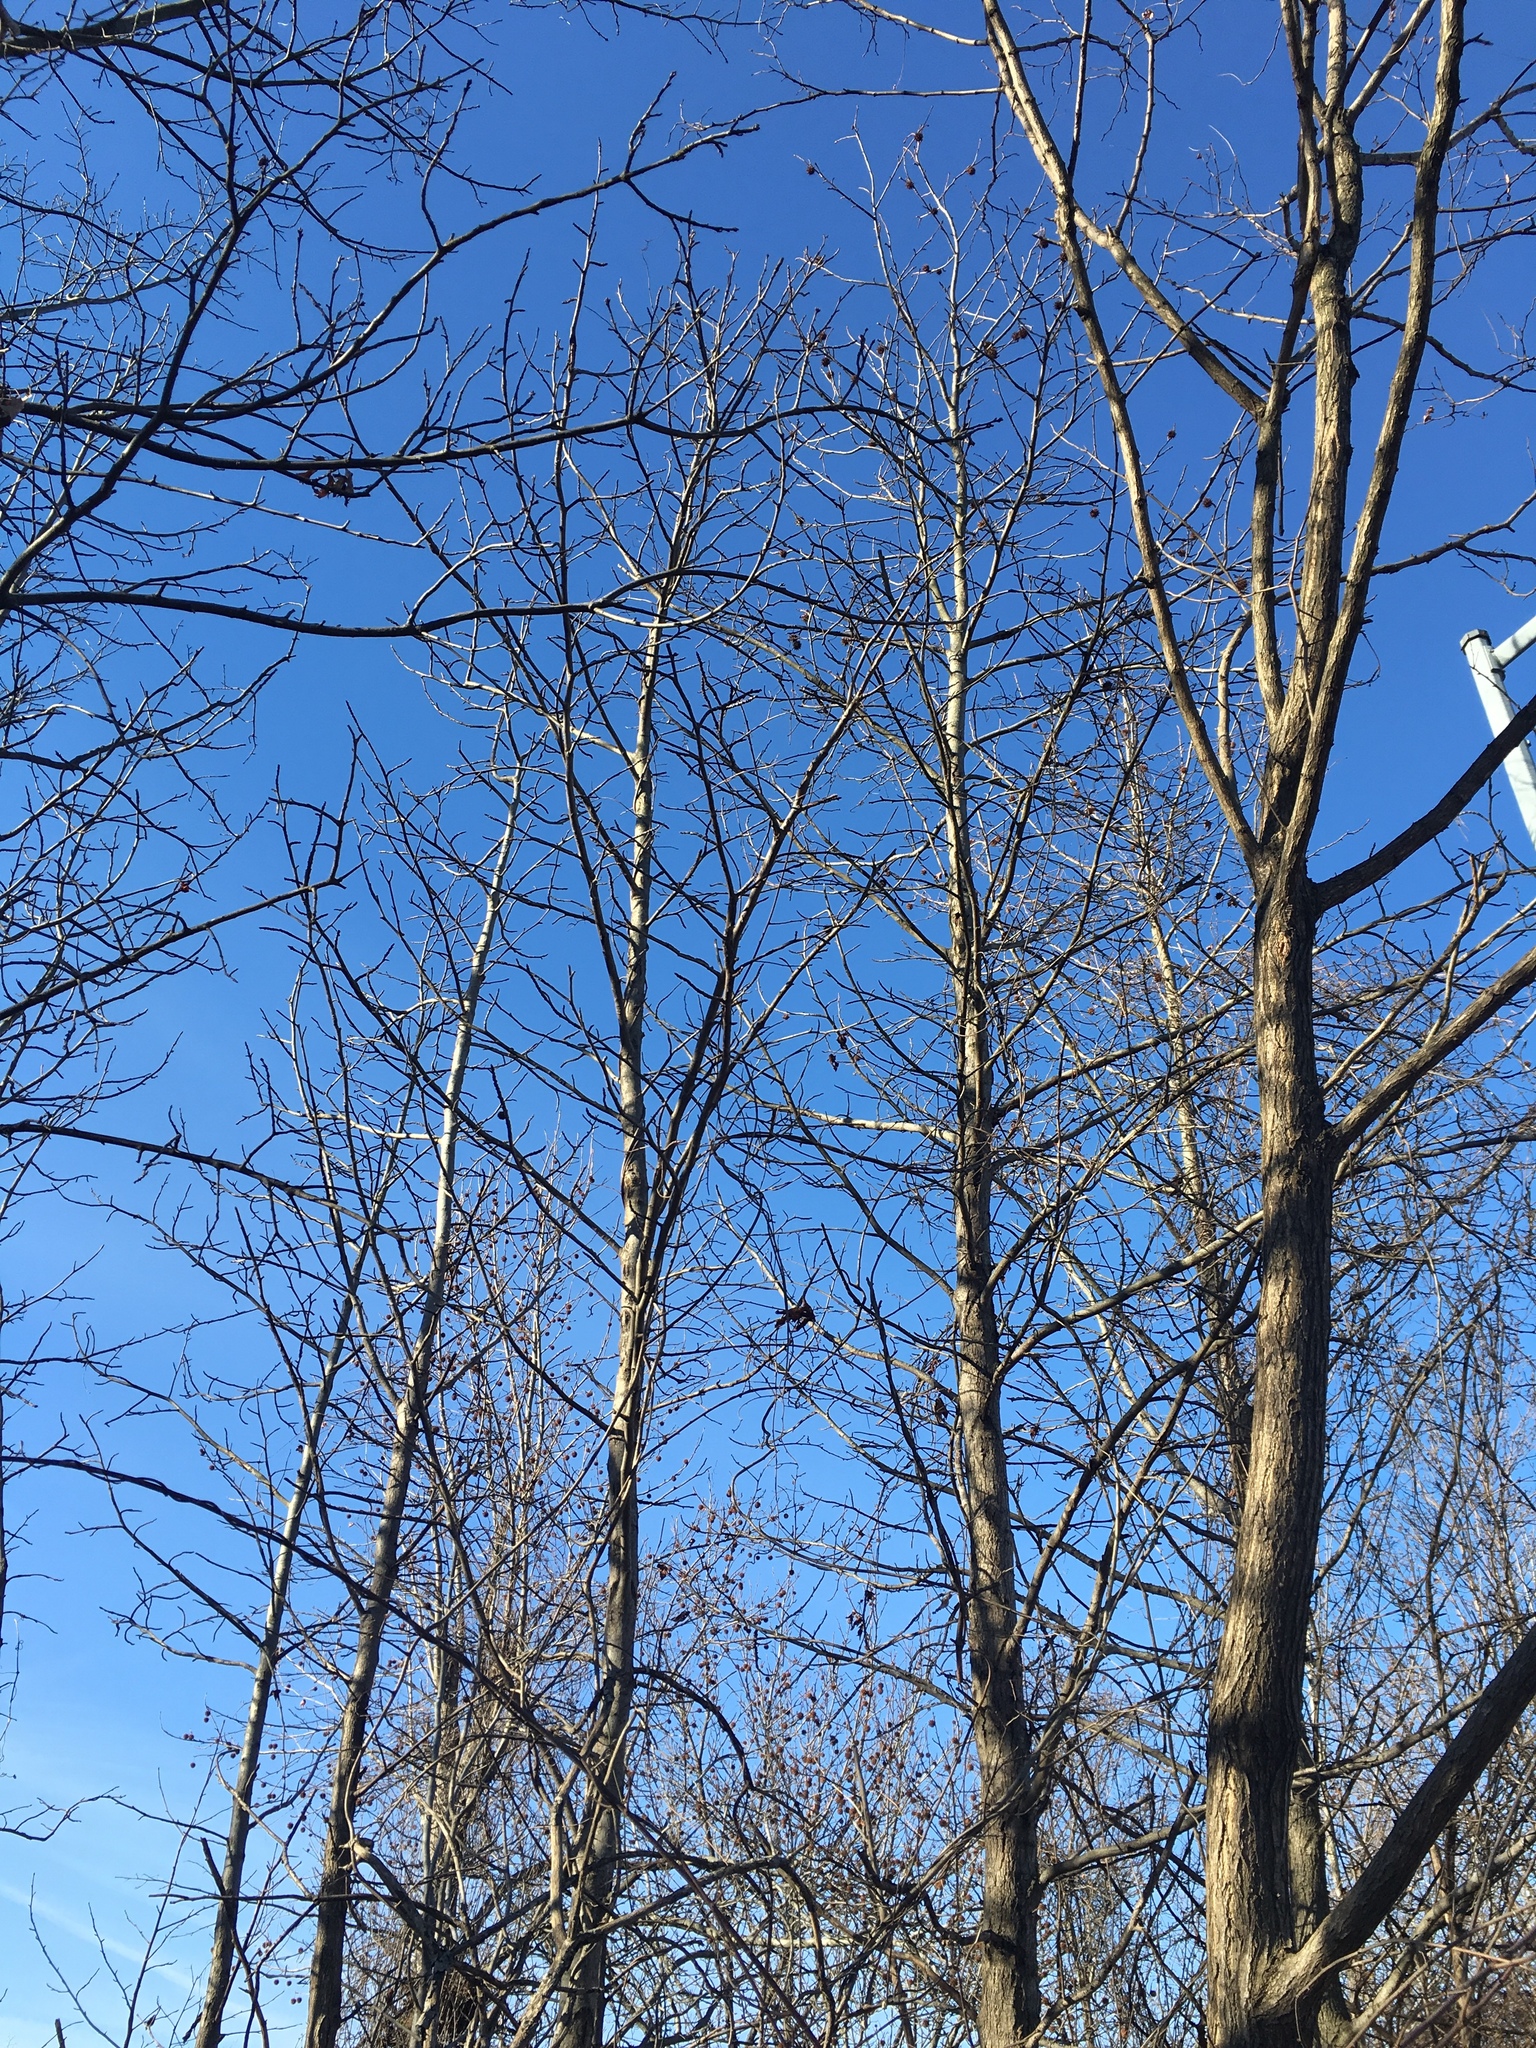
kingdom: Plantae
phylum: Tracheophyta
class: Magnoliopsida
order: Saxifragales
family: Altingiaceae
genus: Liquidambar
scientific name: Liquidambar styraciflua
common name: Sweet gum
